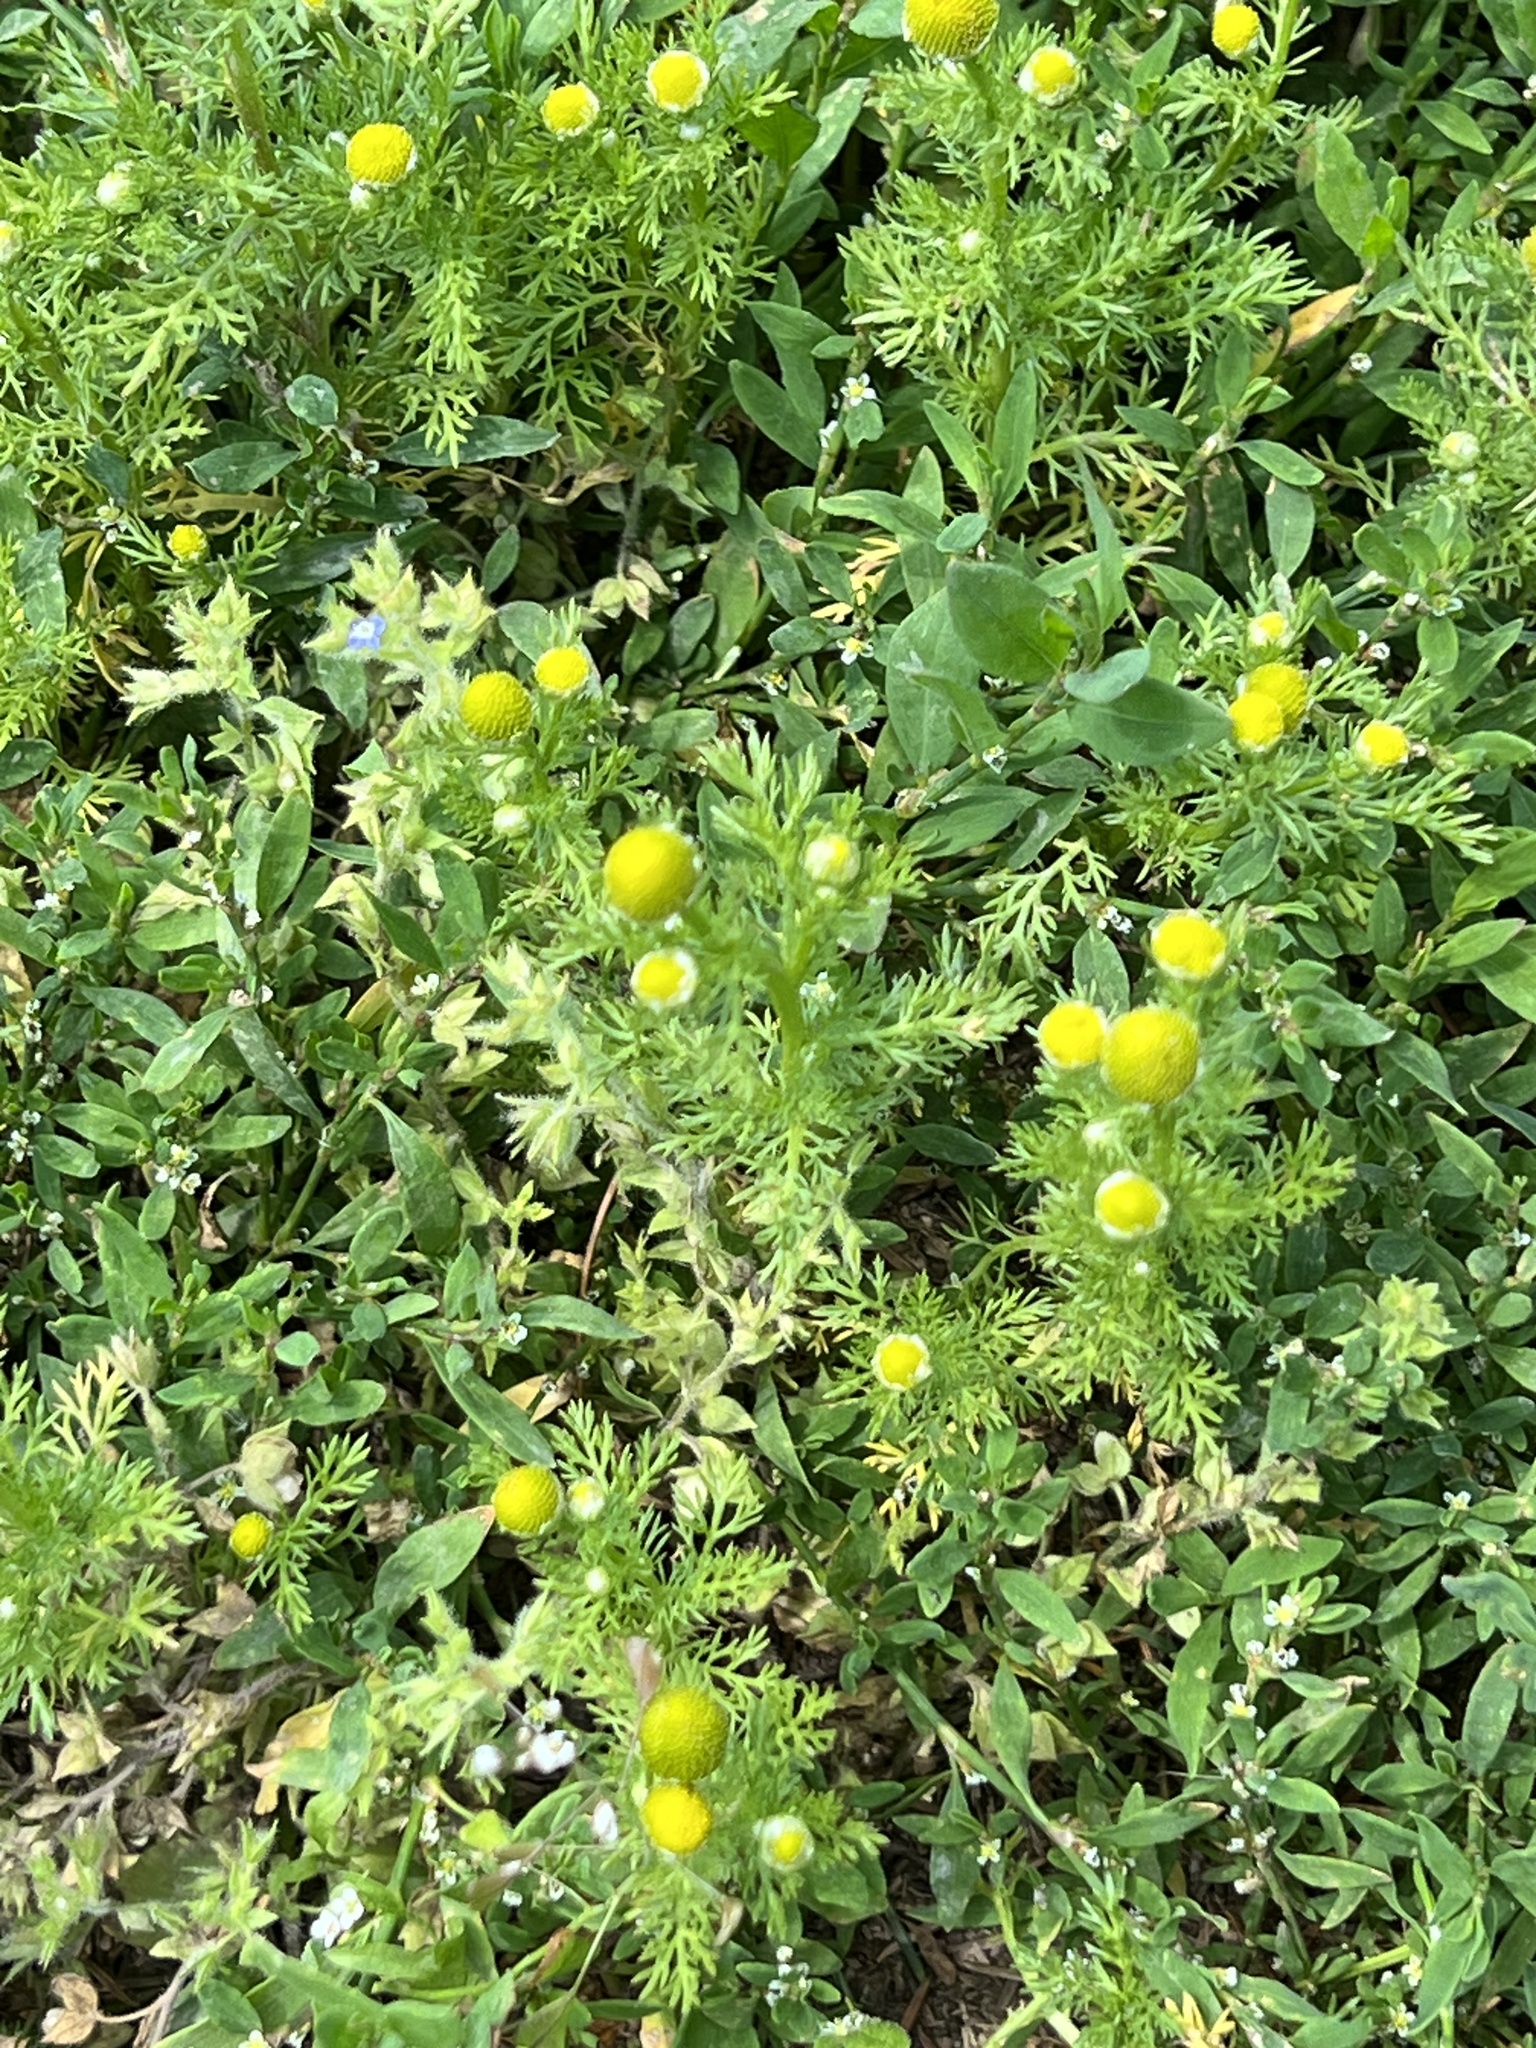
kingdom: Plantae
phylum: Tracheophyta
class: Magnoliopsida
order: Asterales
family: Asteraceae
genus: Matricaria
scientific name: Matricaria discoidea
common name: Disc mayweed
